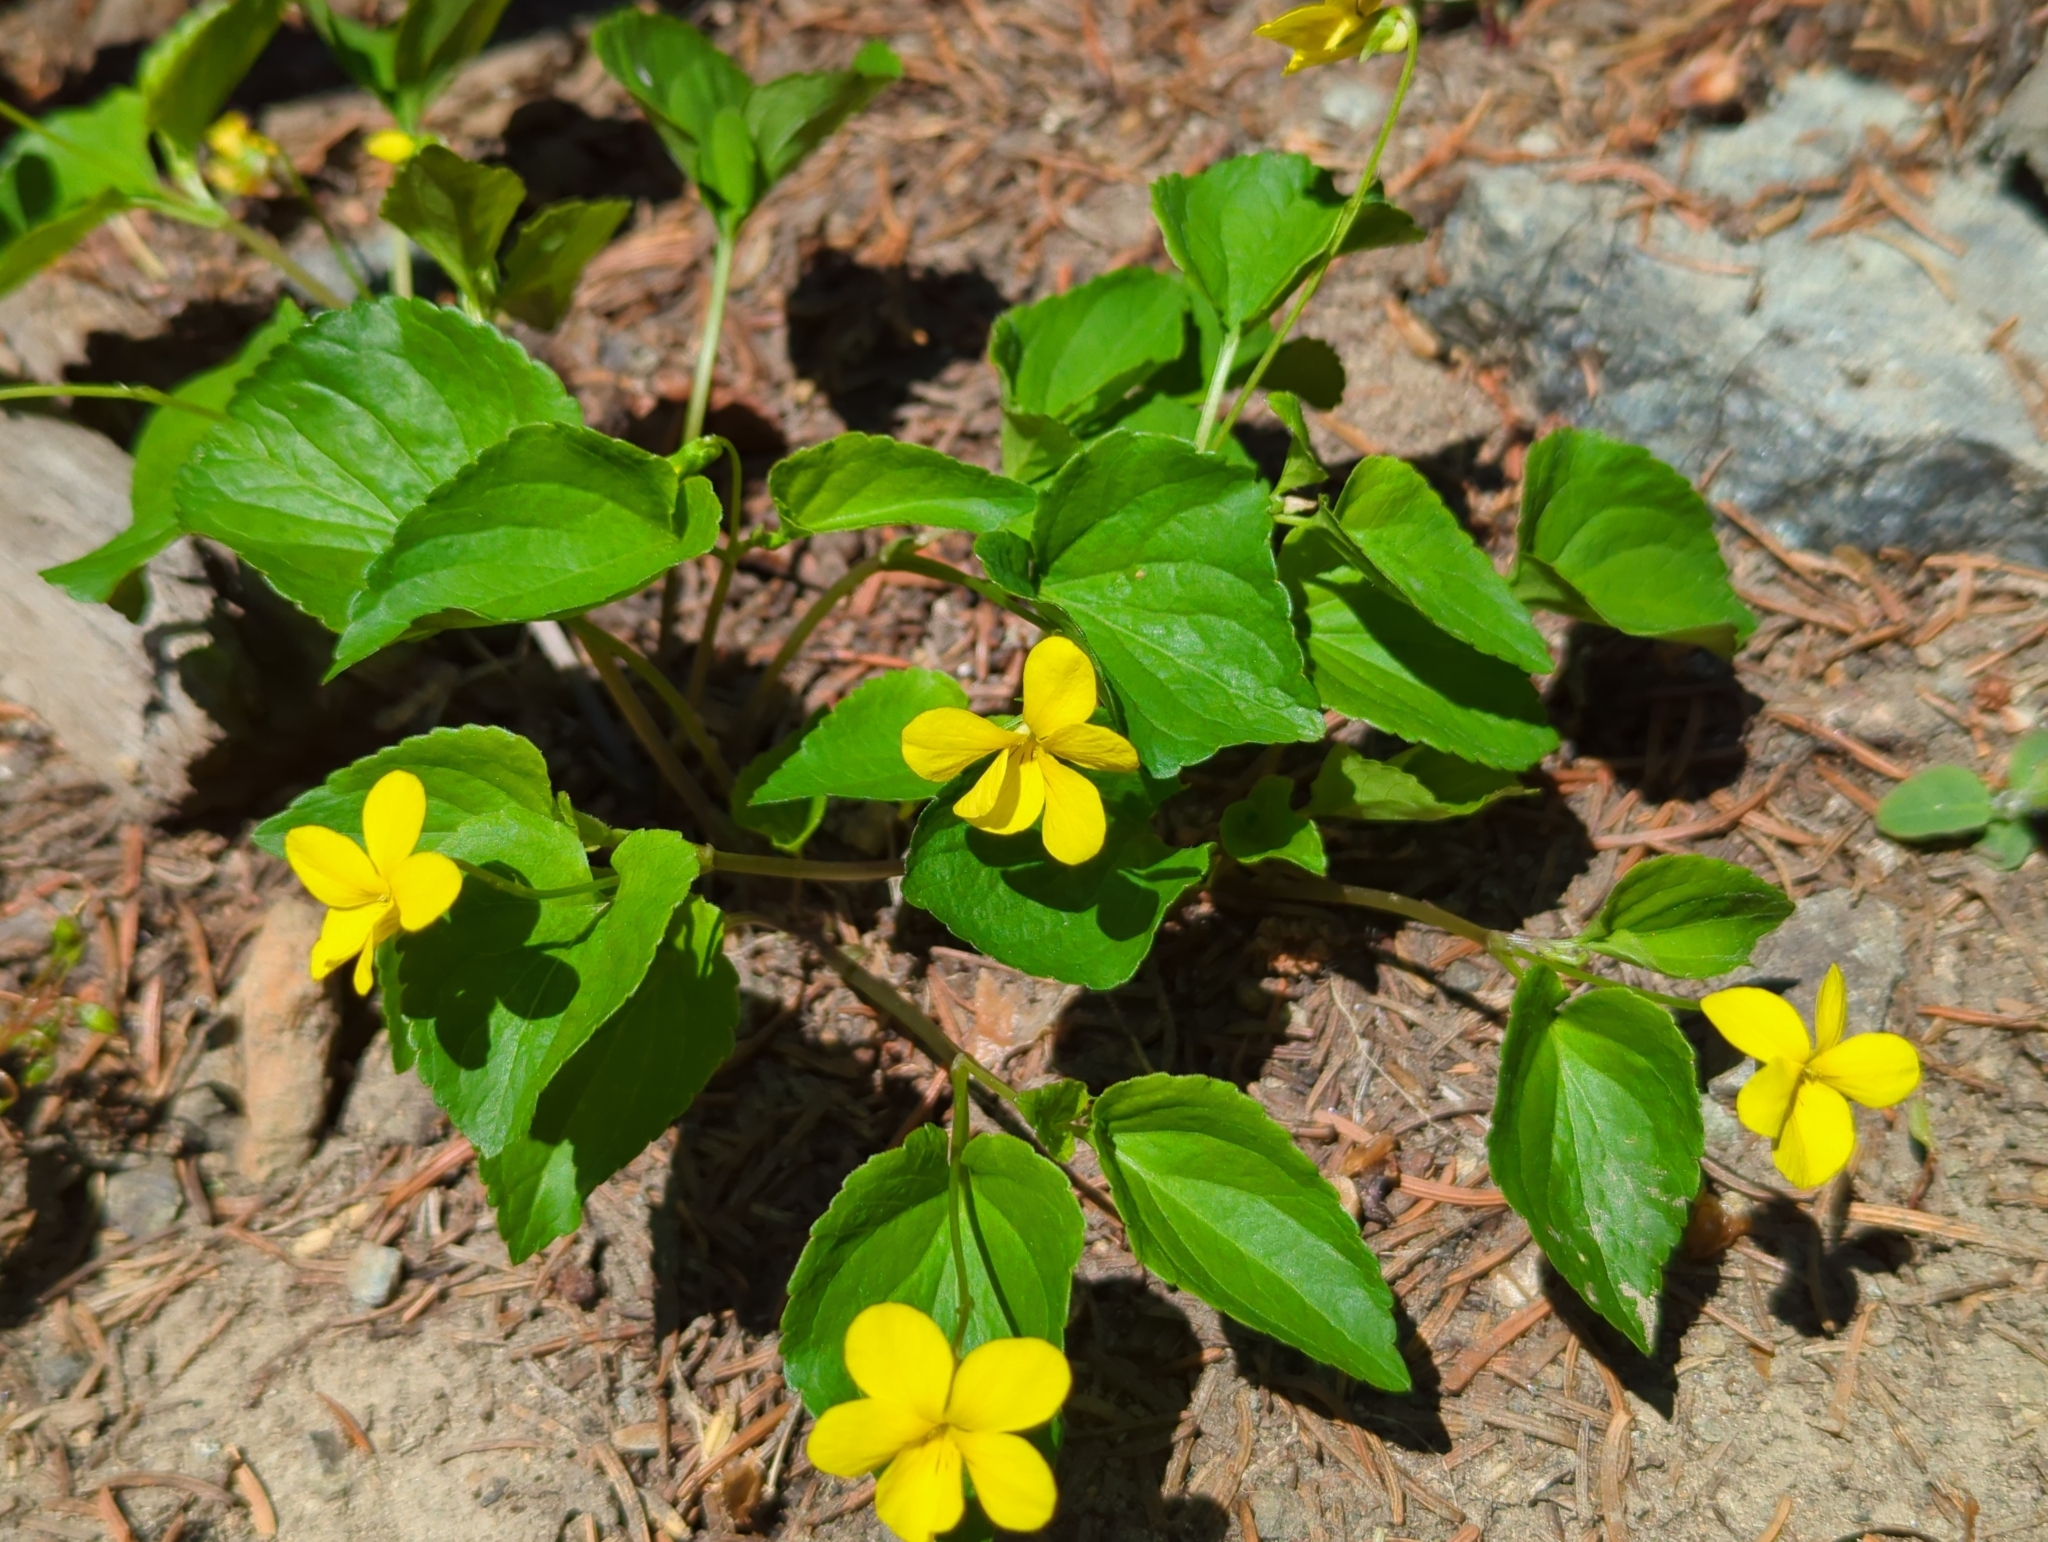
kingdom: Plantae
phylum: Tracheophyta
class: Magnoliopsida
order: Malpighiales
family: Violaceae
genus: Viola
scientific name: Viola glabella
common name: Stream violet
